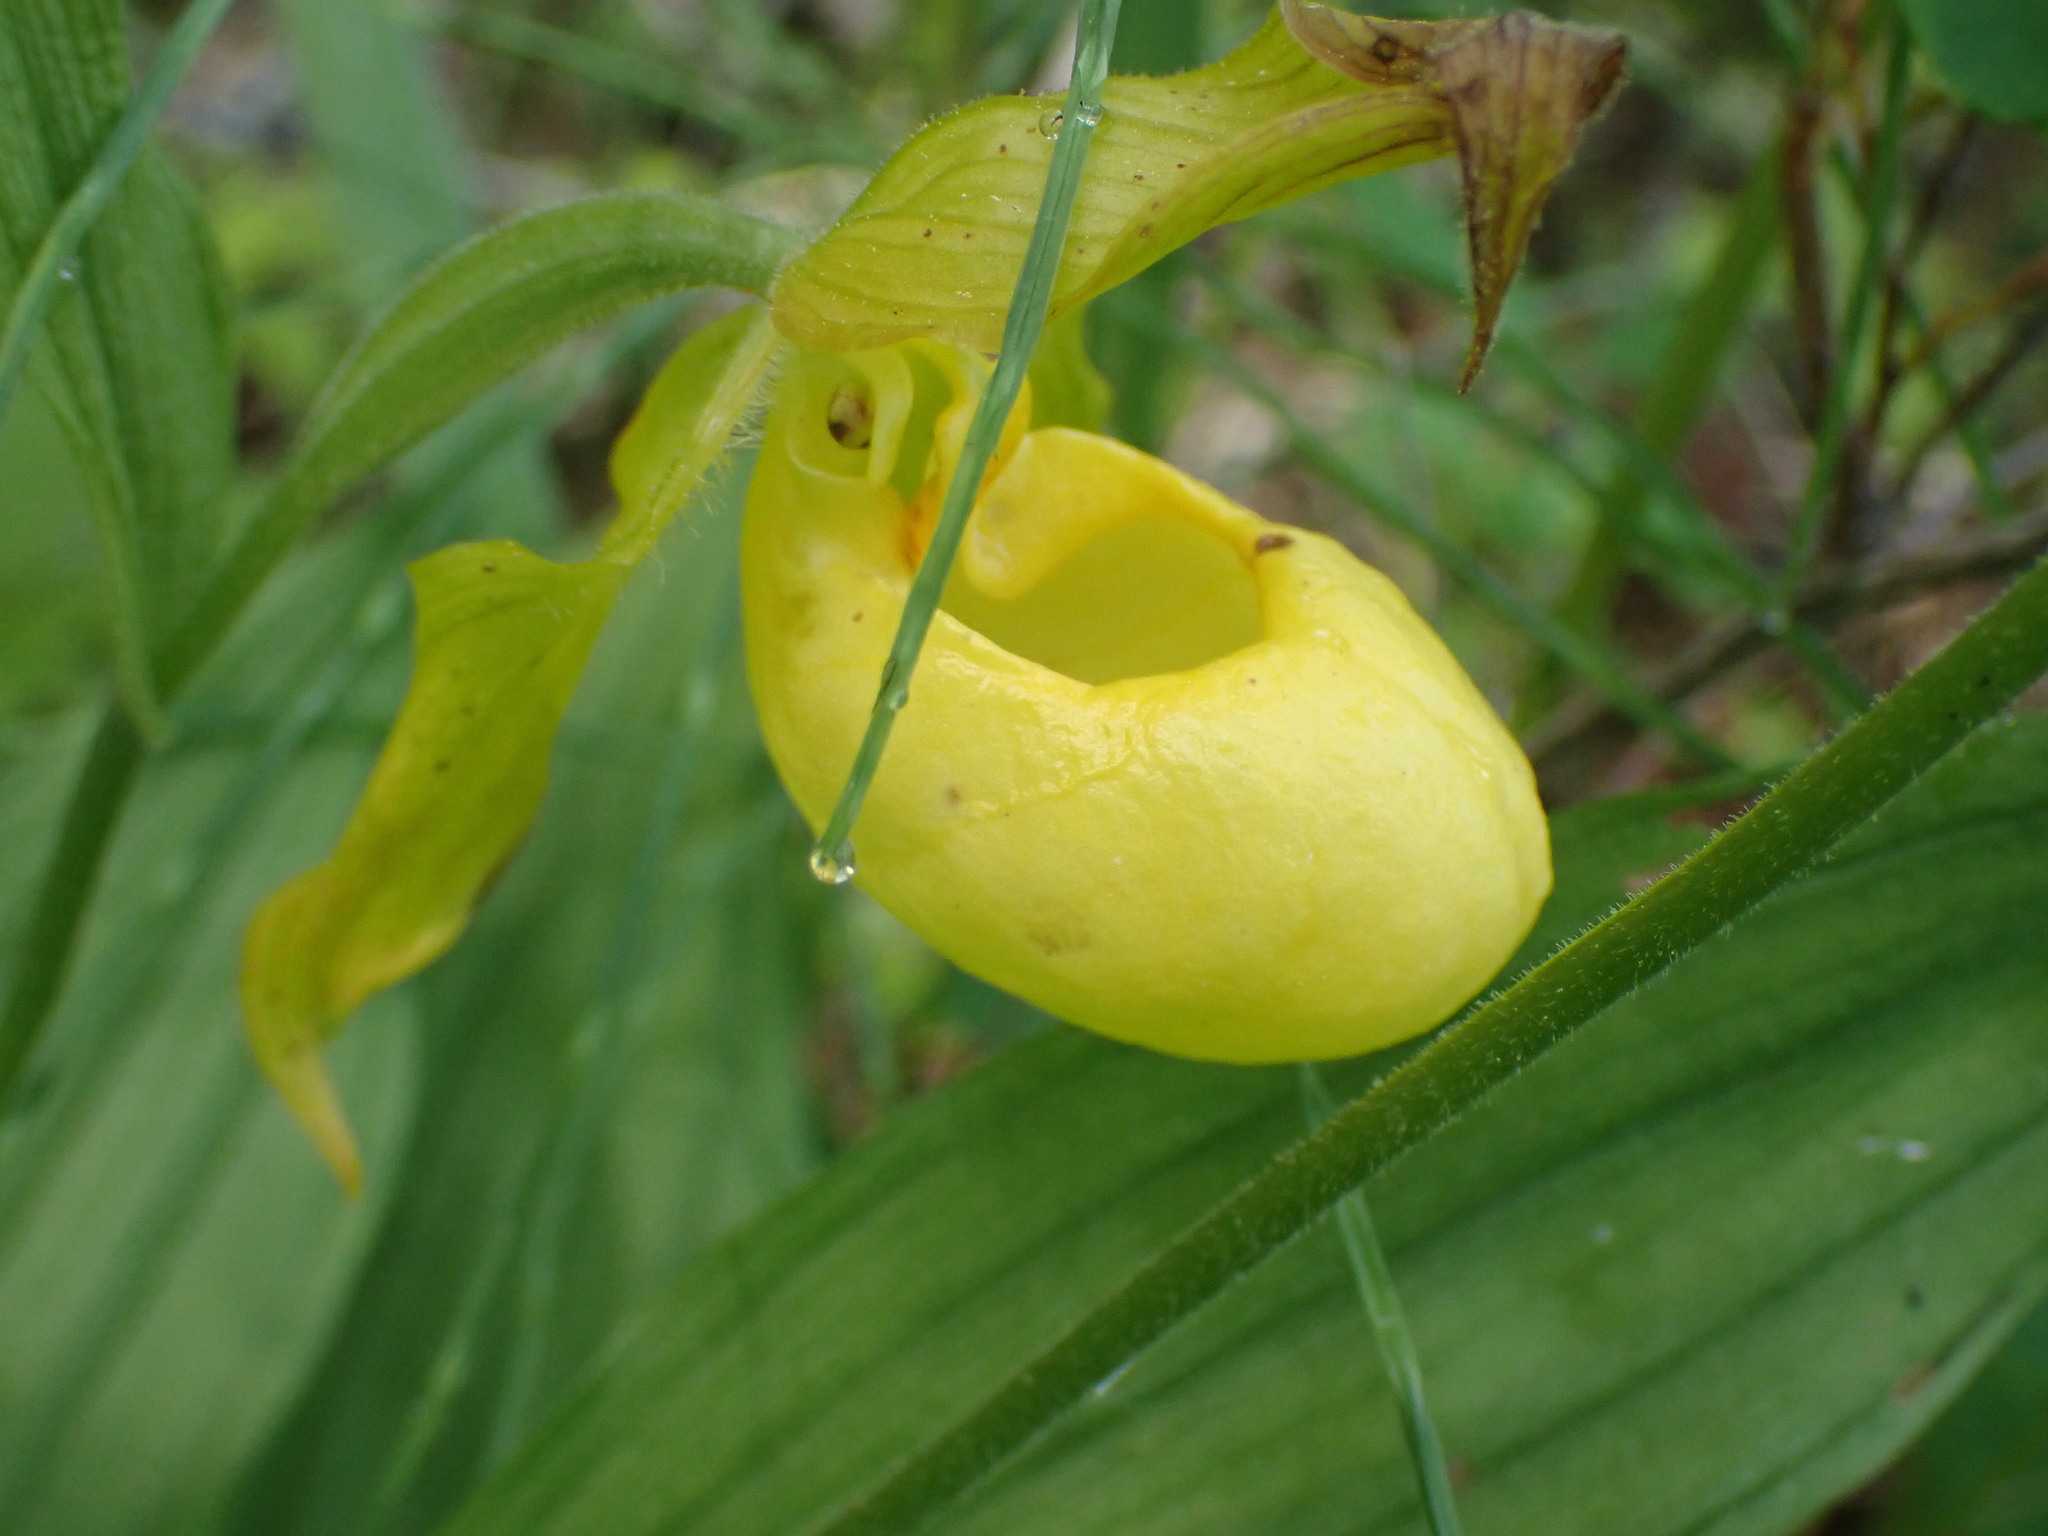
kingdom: Plantae
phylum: Tracheophyta
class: Liliopsida
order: Asparagales
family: Orchidaceae
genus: Cypripedium
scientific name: Cypripedium parviflorum
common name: American yellow lady's-slipper
